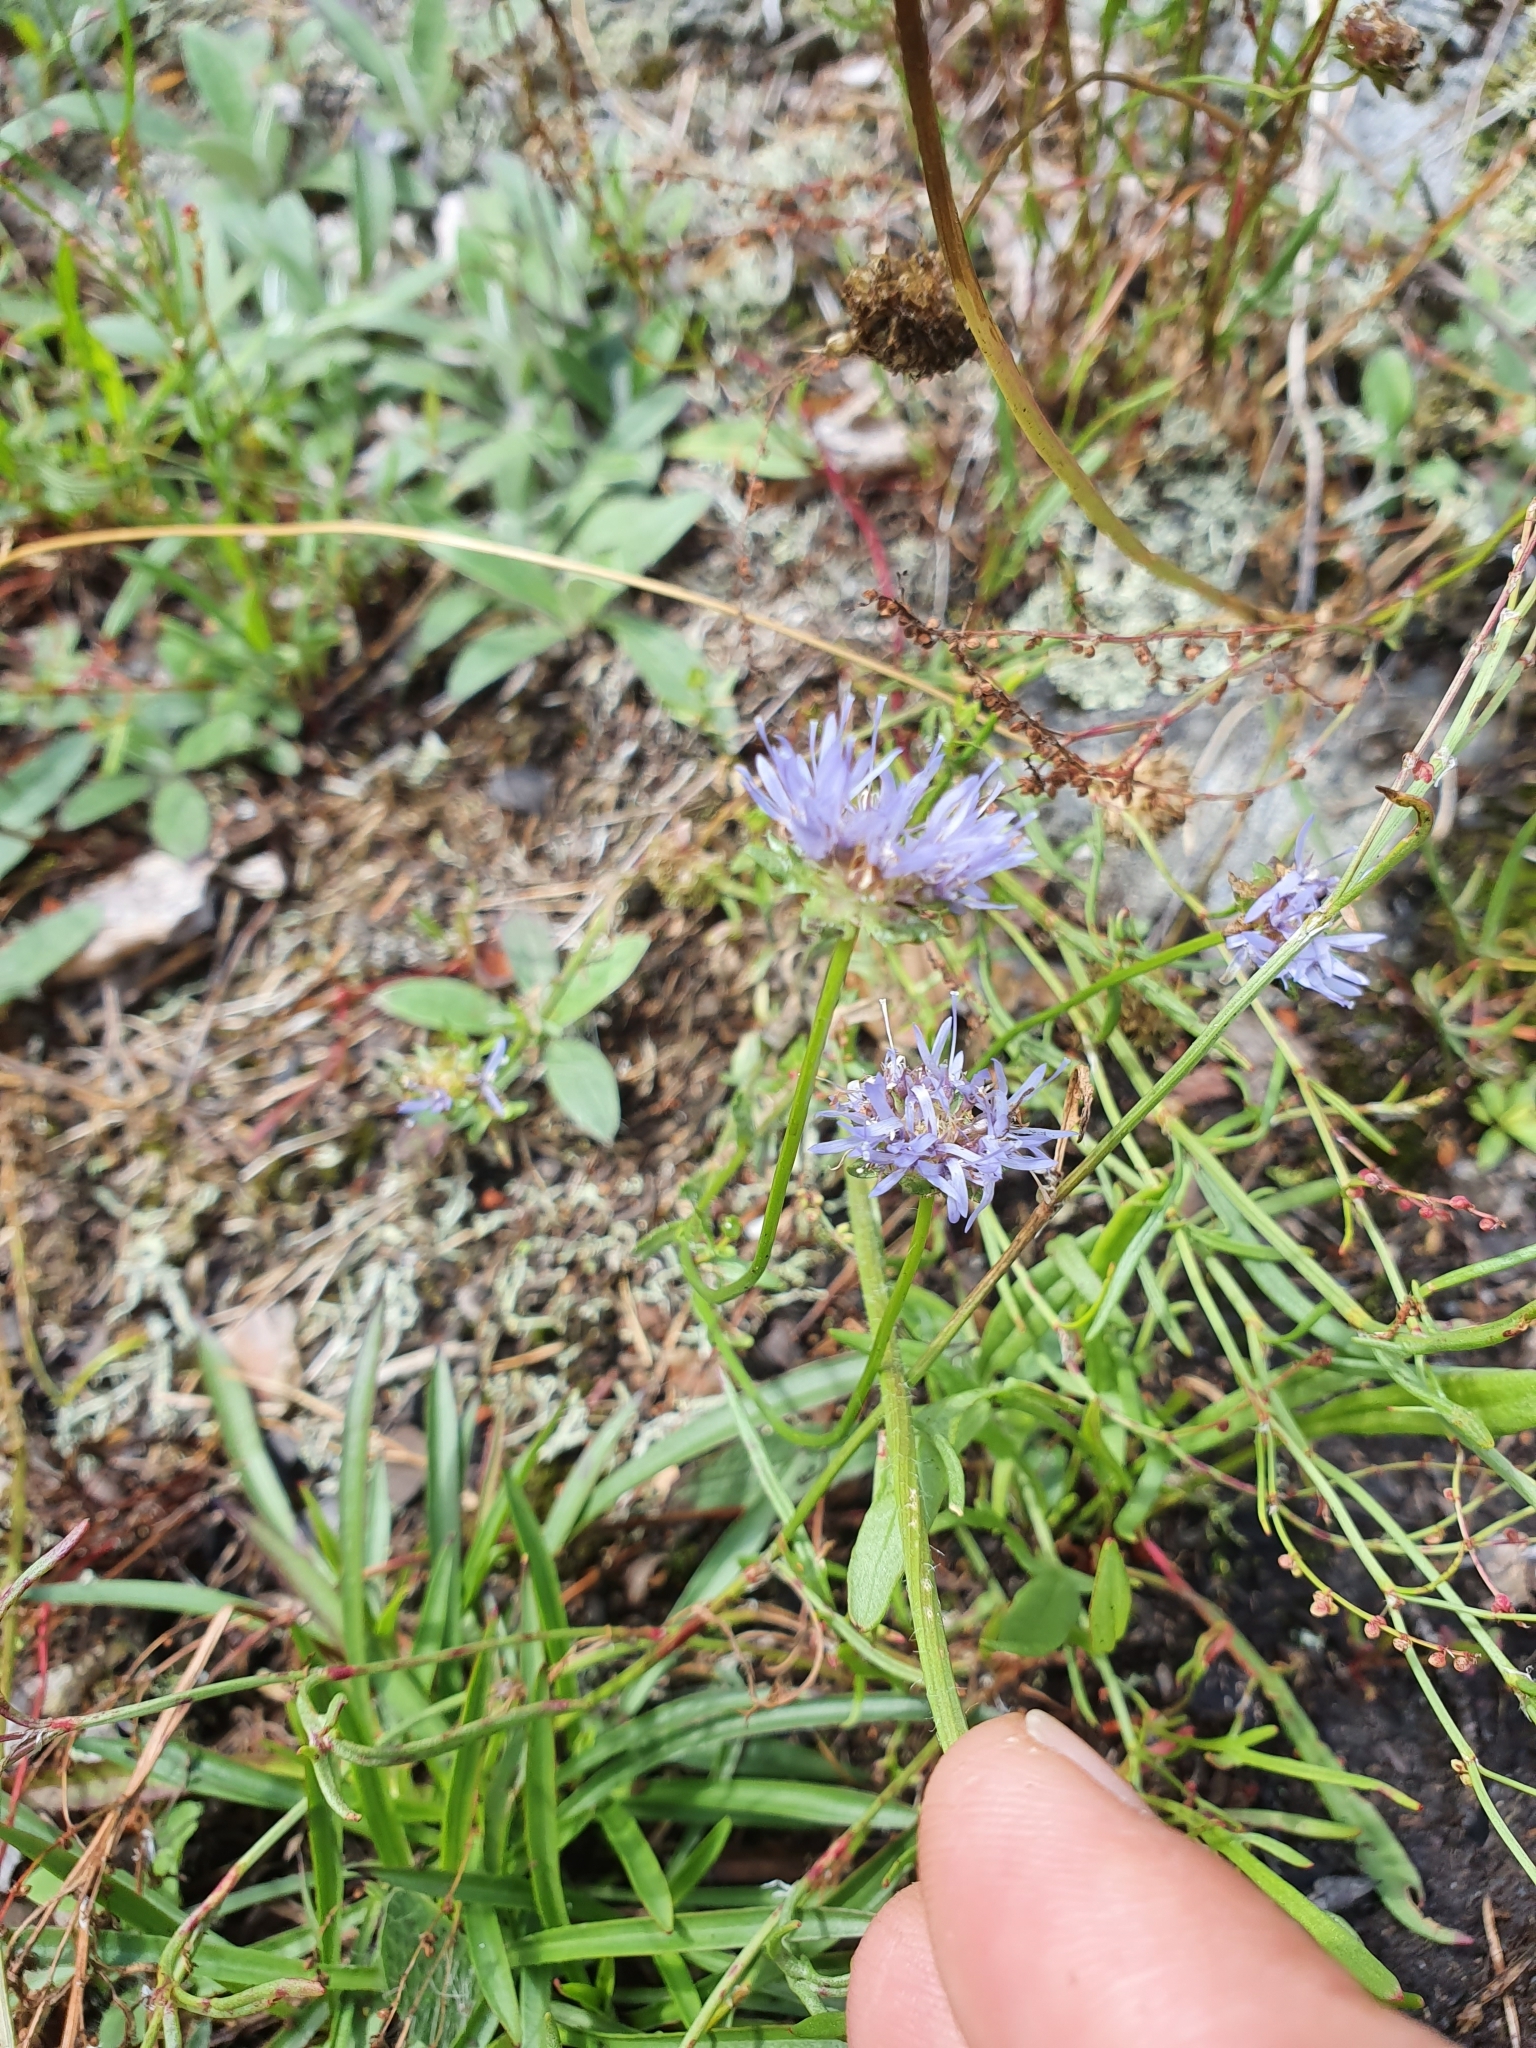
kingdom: Plantae
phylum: Tracheophyta
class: Magnoliopsida
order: Asterales
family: Campanulaceae
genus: Jasione
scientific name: Jasione montana
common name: Sheep's-bit
